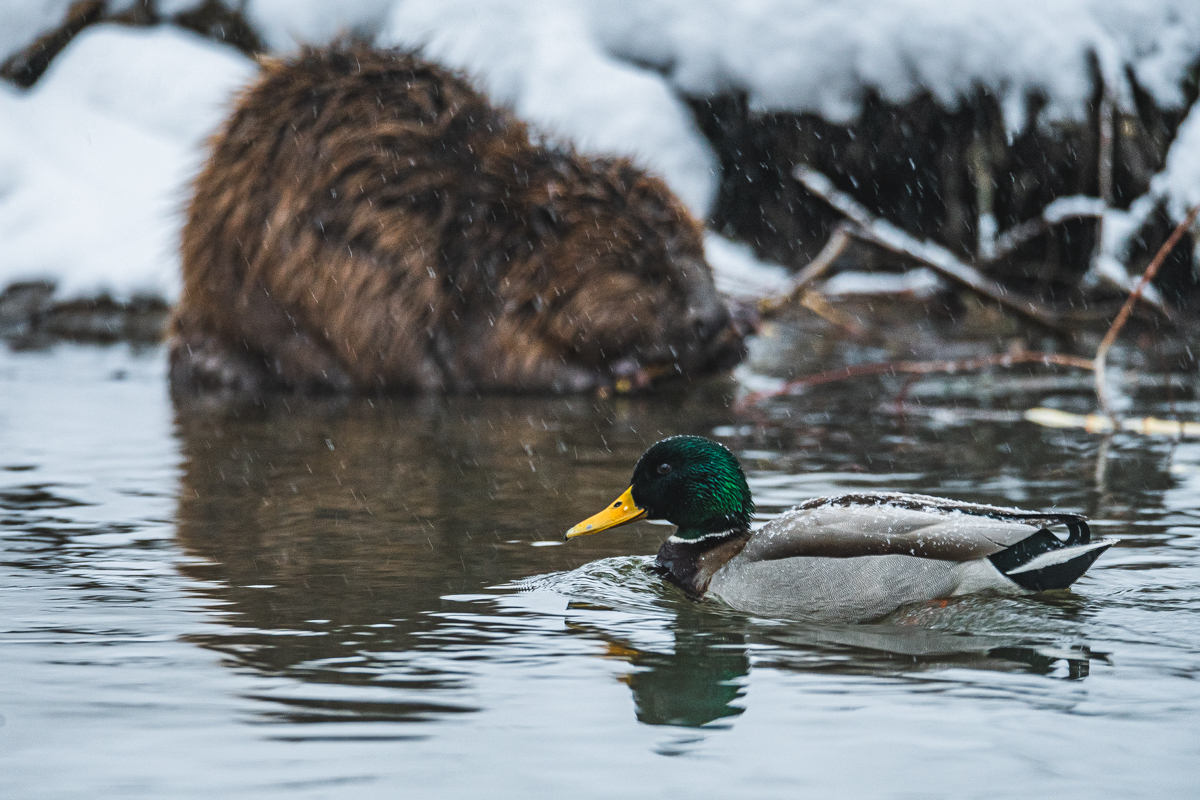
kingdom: Animalia
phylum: Chordata
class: Mammalia
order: Rodentia
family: Castoridae
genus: Castor
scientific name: Castor fiber
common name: Eurasian beaver
